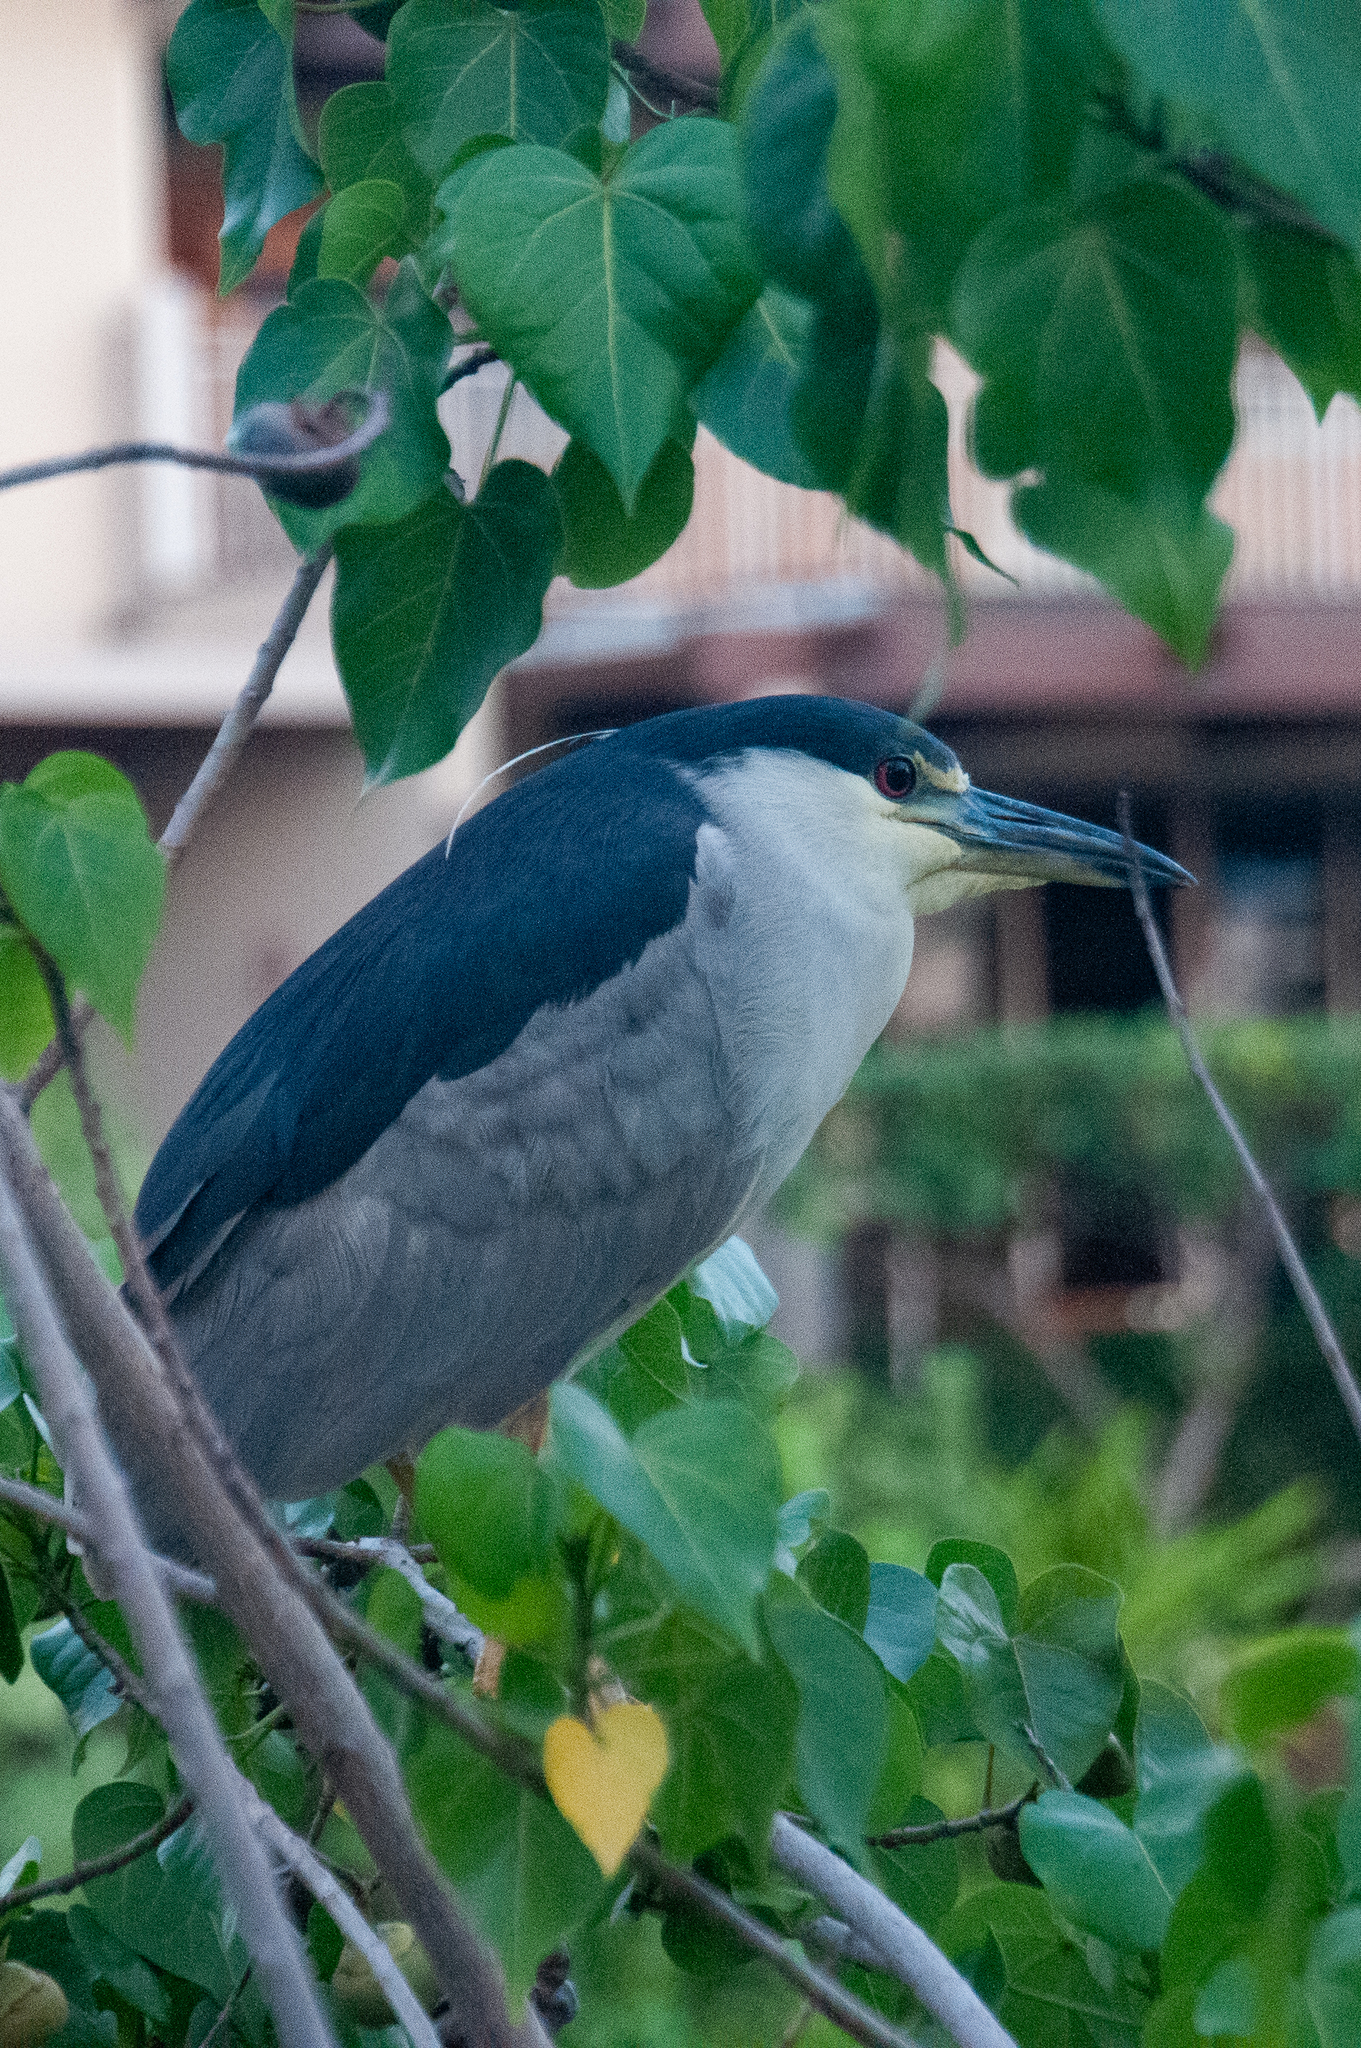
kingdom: Animalia
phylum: Chordata
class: Aves
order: Pelecaniformes
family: Ardeidae
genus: Nycticorax
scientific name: Nycticorax nycticorax
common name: Black-crowned night heron
